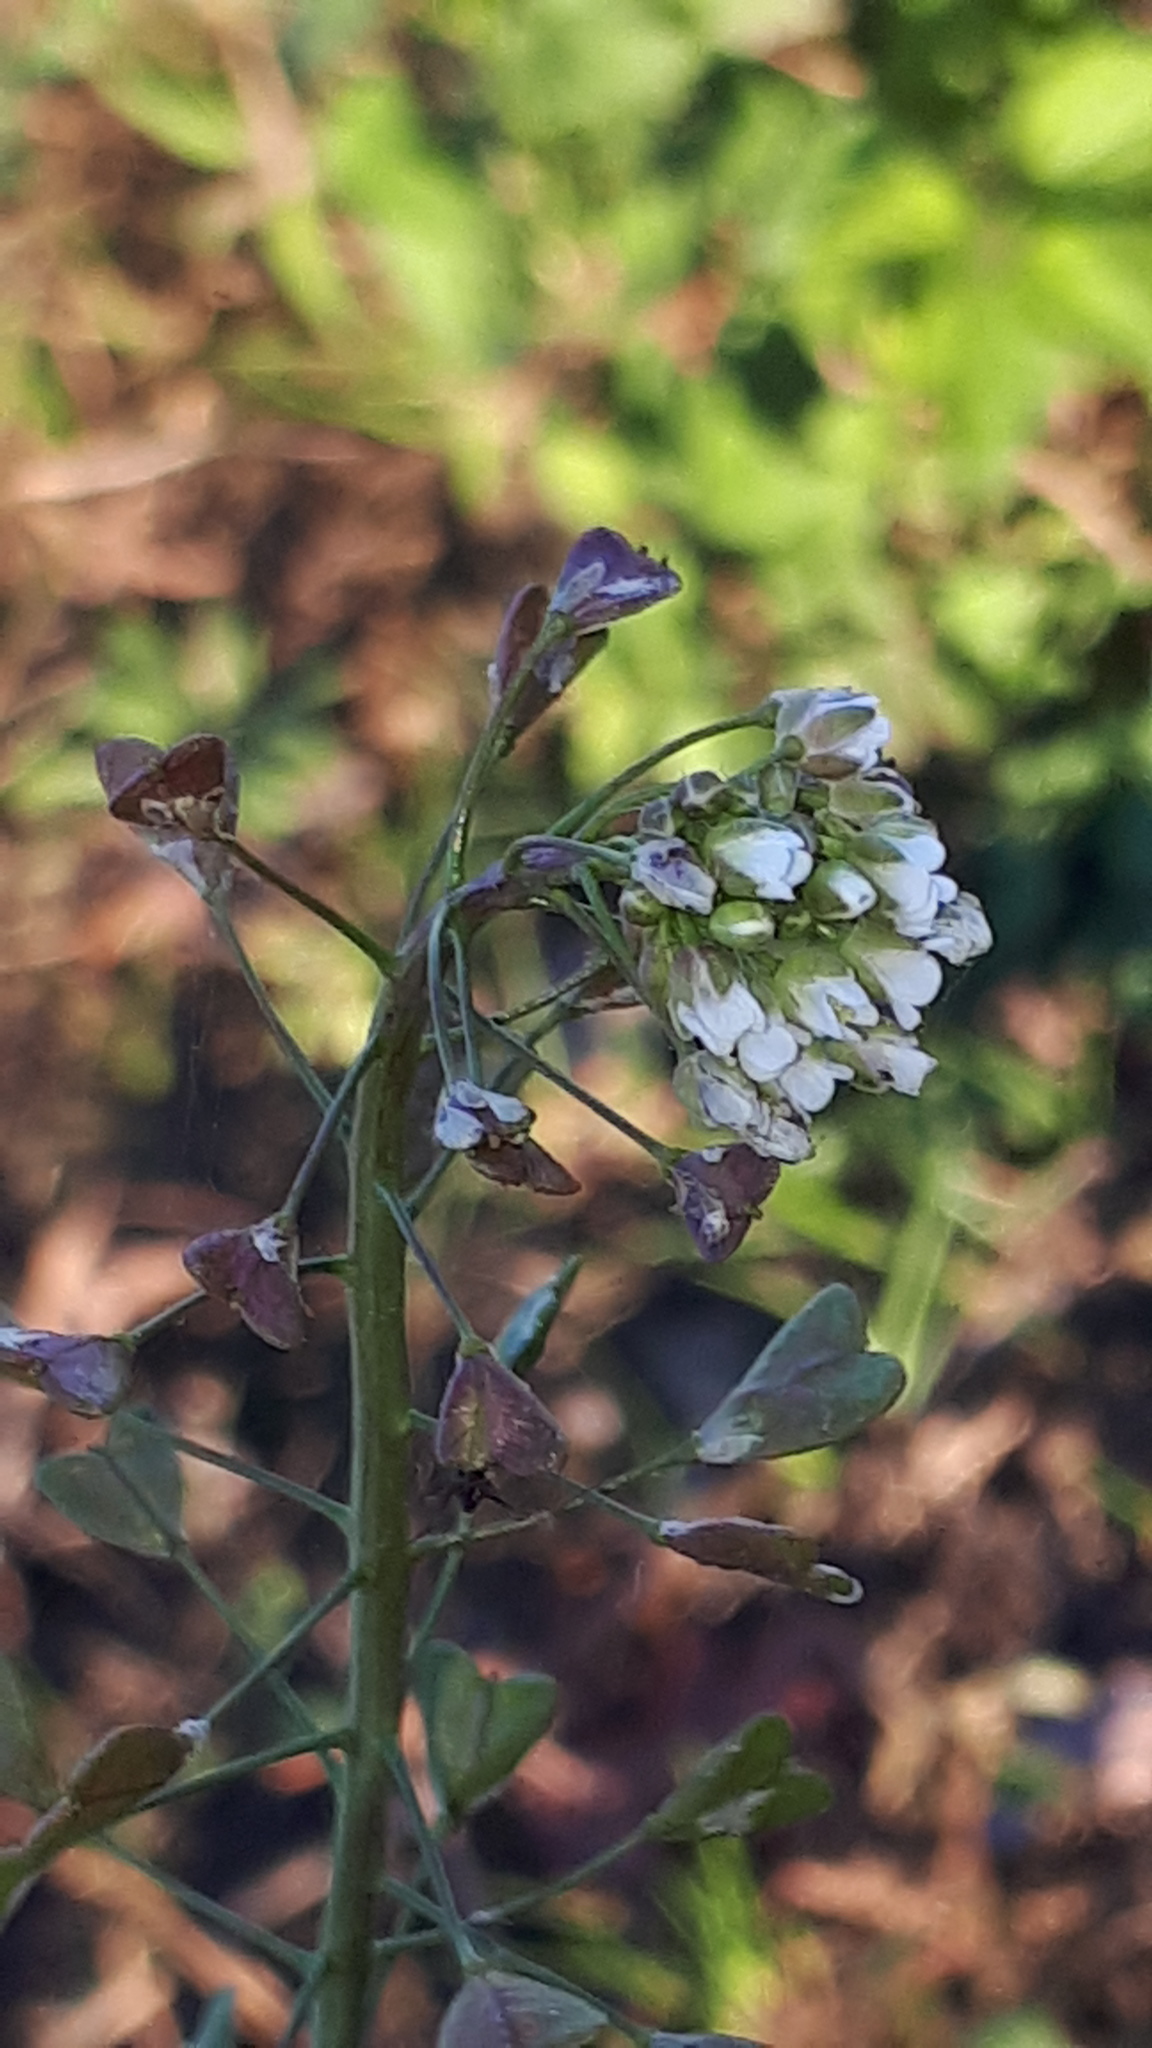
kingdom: Plantae
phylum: Tracheophyta
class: Magnoliopsida
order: Brassicales
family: Brassicaceae
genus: Capsella
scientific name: Capsella bursa-pastoris
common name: Shepherd's purse
